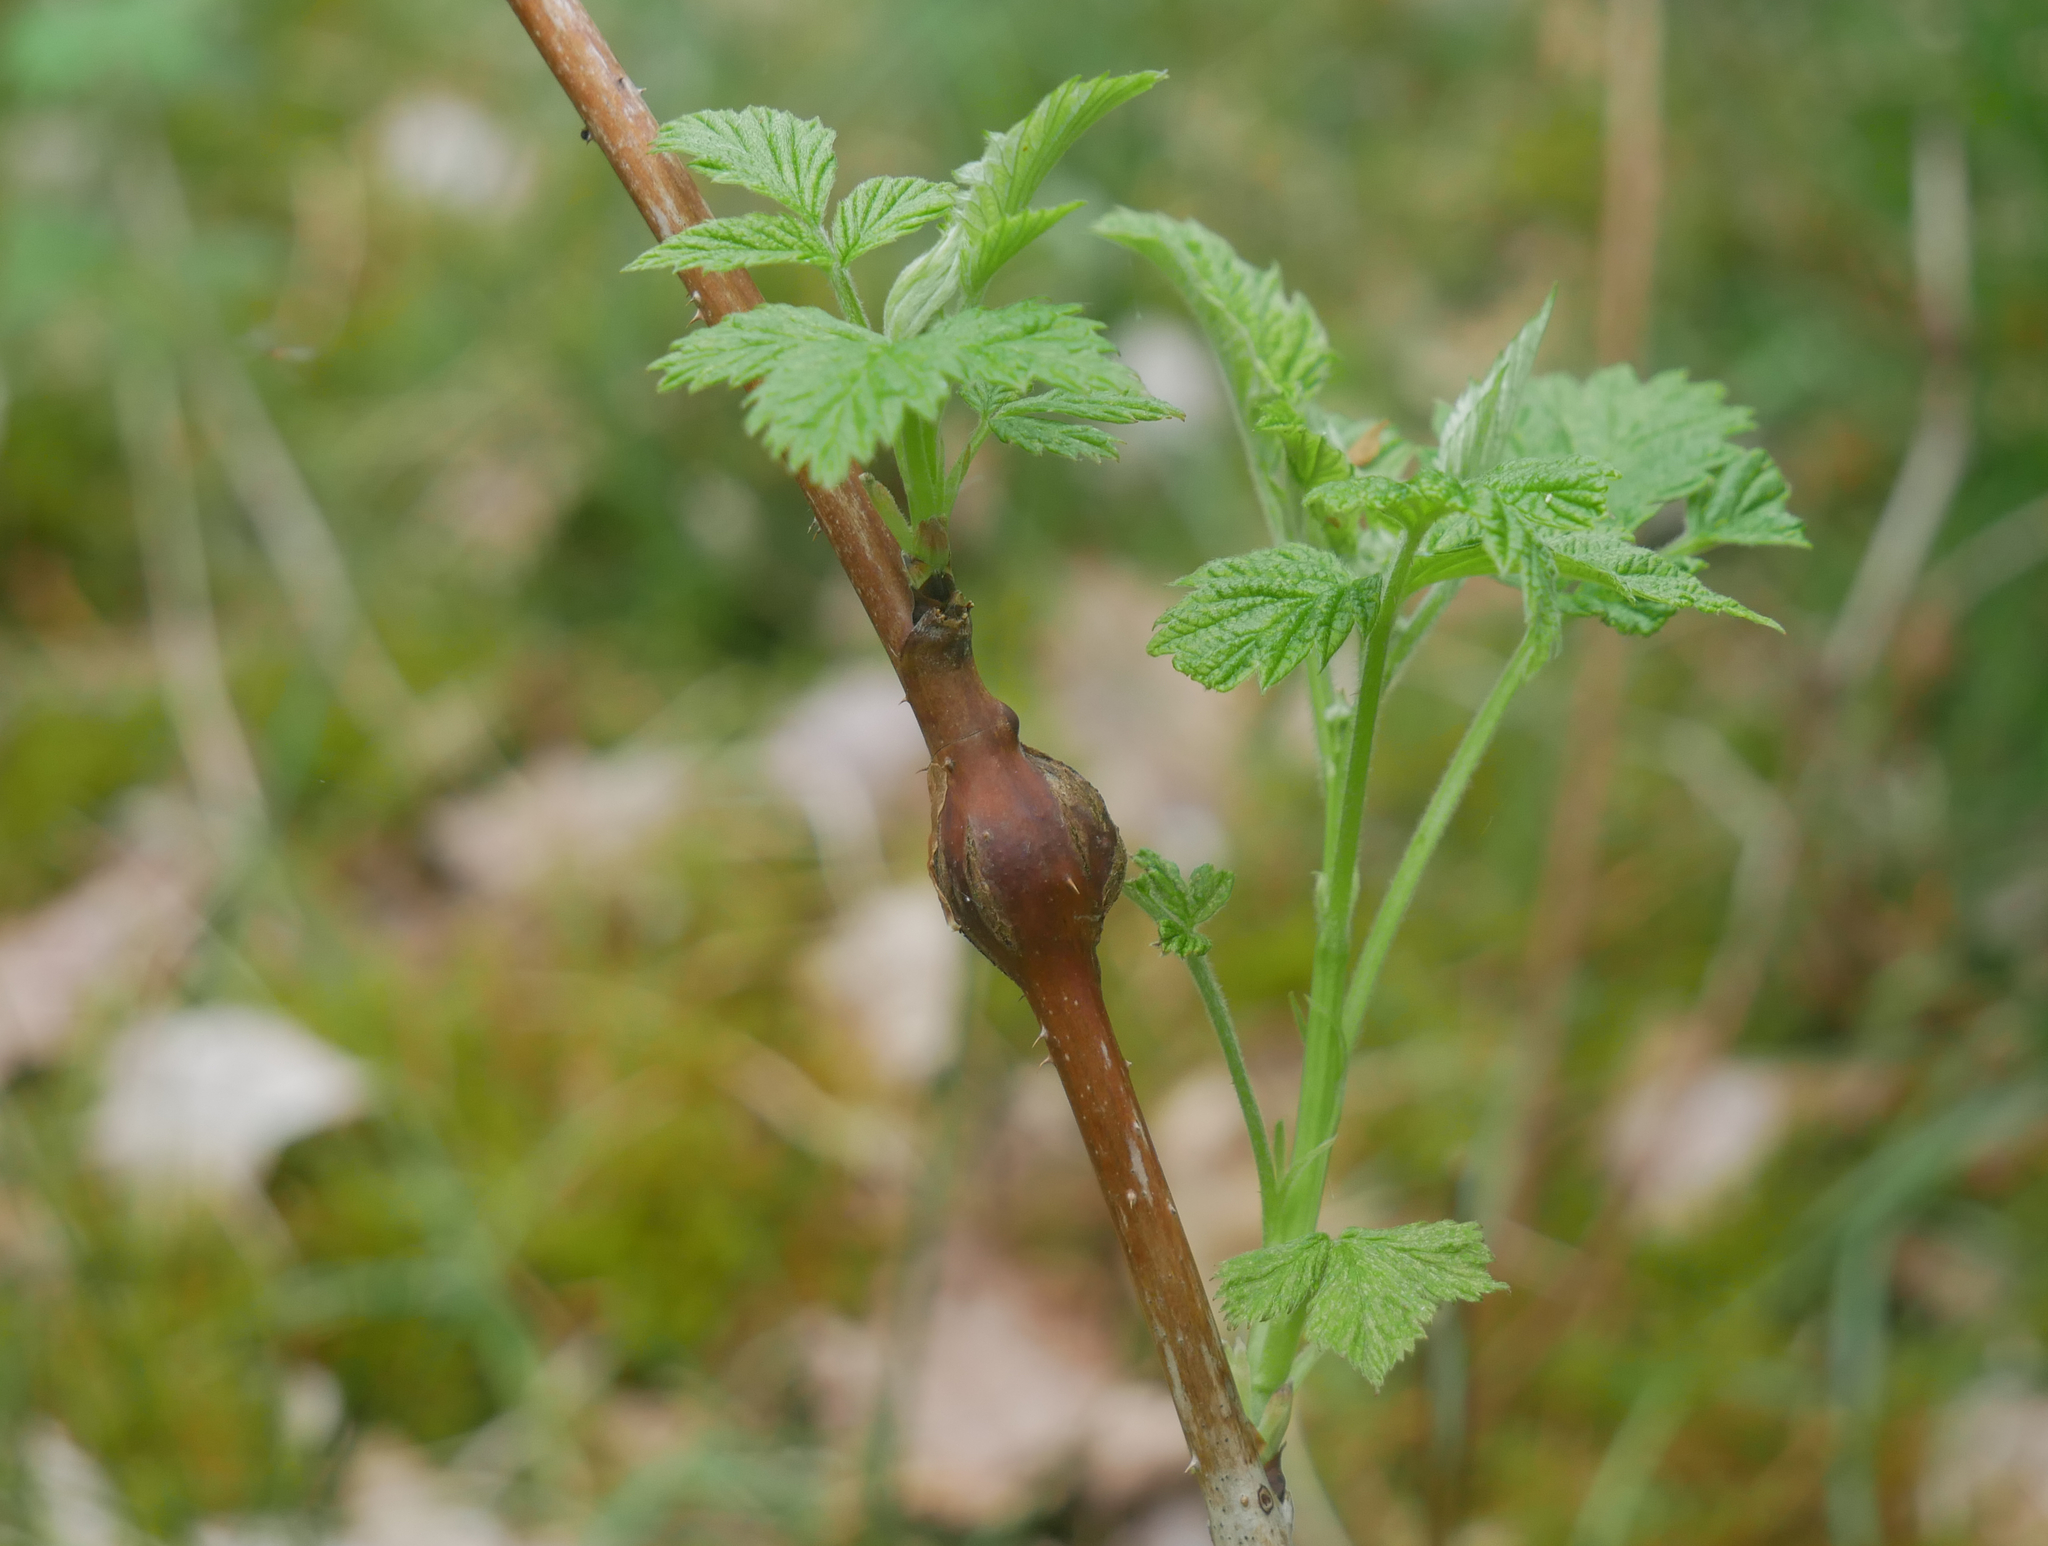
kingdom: Animalia
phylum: Arthropoda
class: Insecta
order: Diptera
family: Cecidomyiidae
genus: Lasioptera
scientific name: Lasioptera rubi
